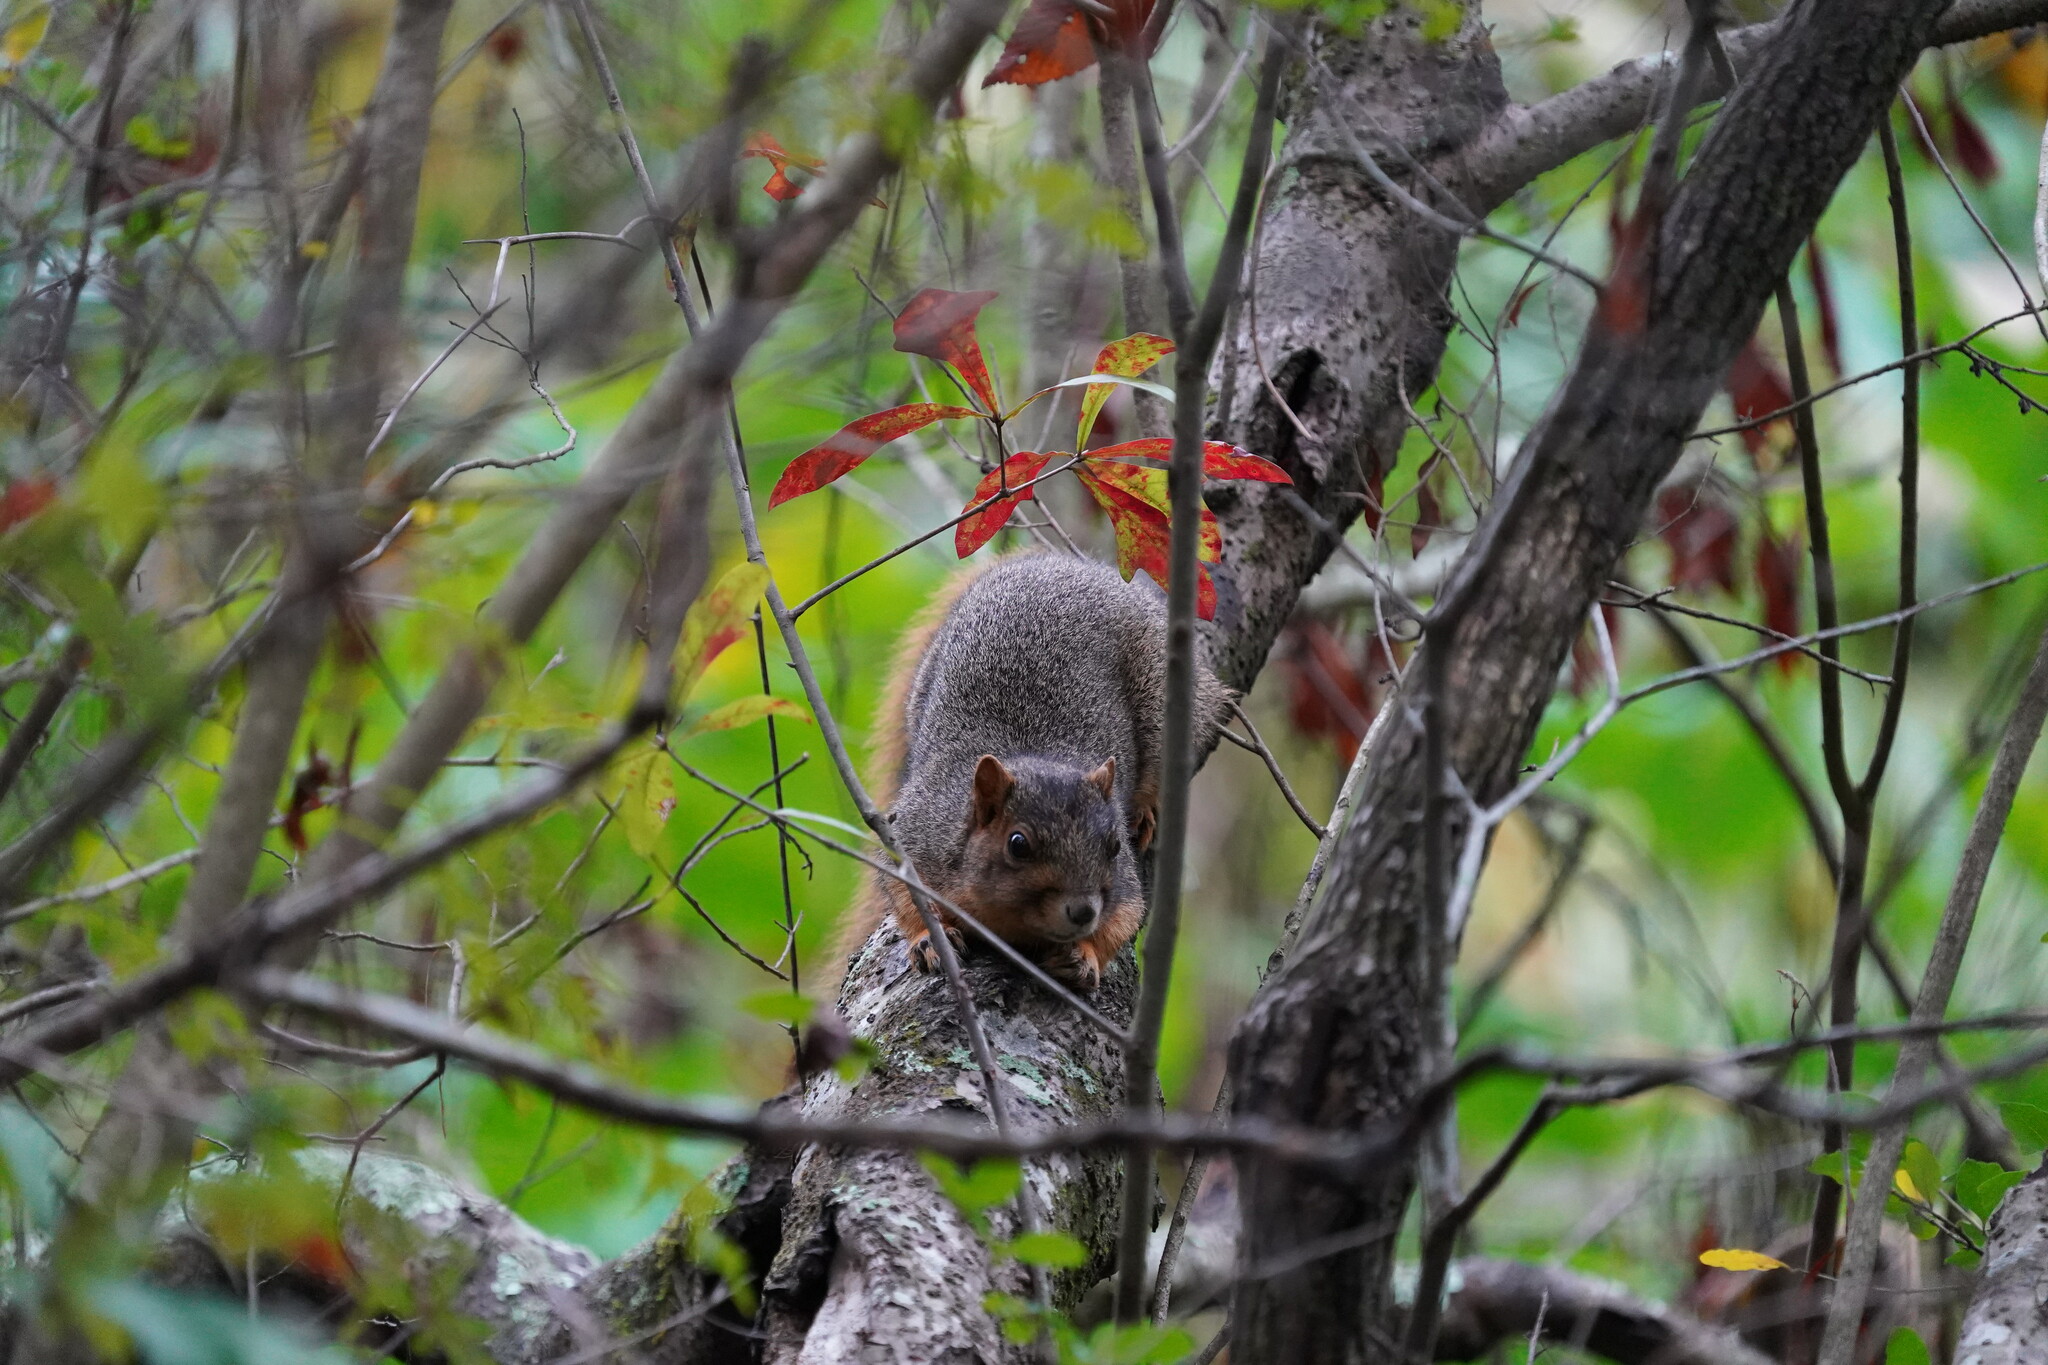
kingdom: Animalia
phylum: Chordata
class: Mammalia
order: Rodentia
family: Sciuridae
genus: Sciurus
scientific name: Sciurus niger
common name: Fox squirrel
